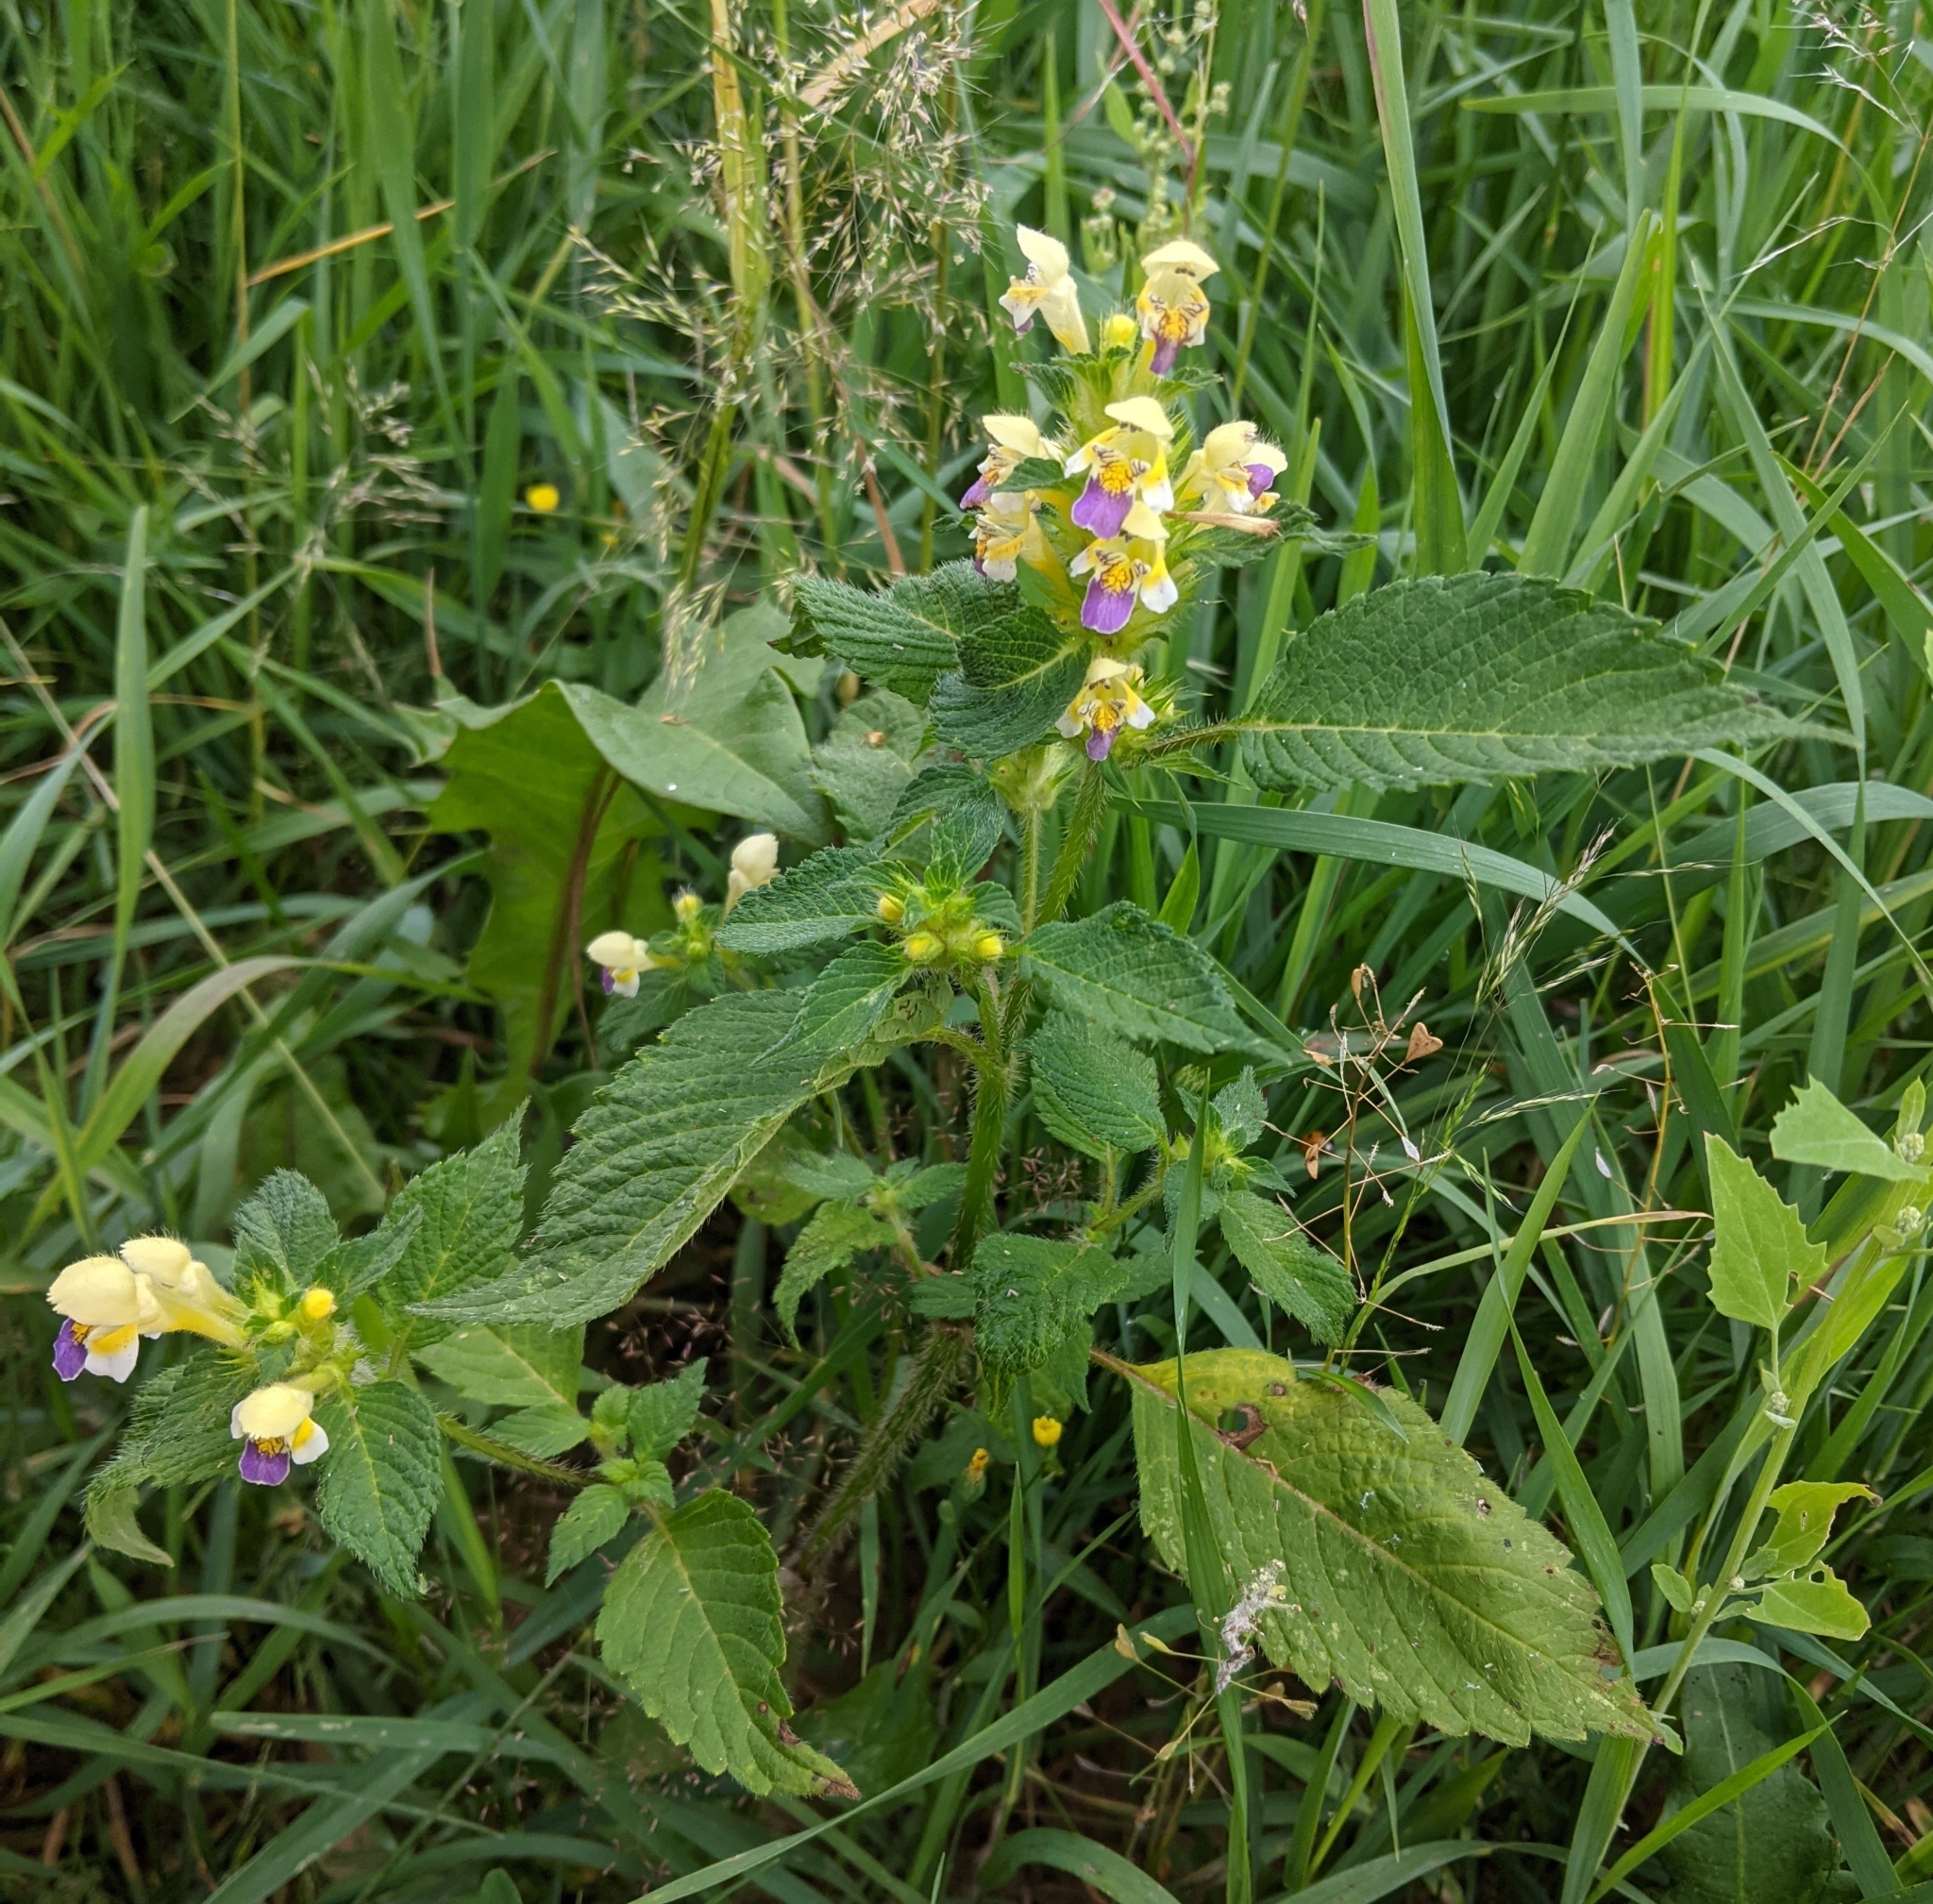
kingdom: Plantae
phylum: Tracheophyta
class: Magnoliopsida
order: Lamiales
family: Lamiaceae
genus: Galeopsis
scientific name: Galeopsis speciosa
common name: Large-flowered hemp-nettle
